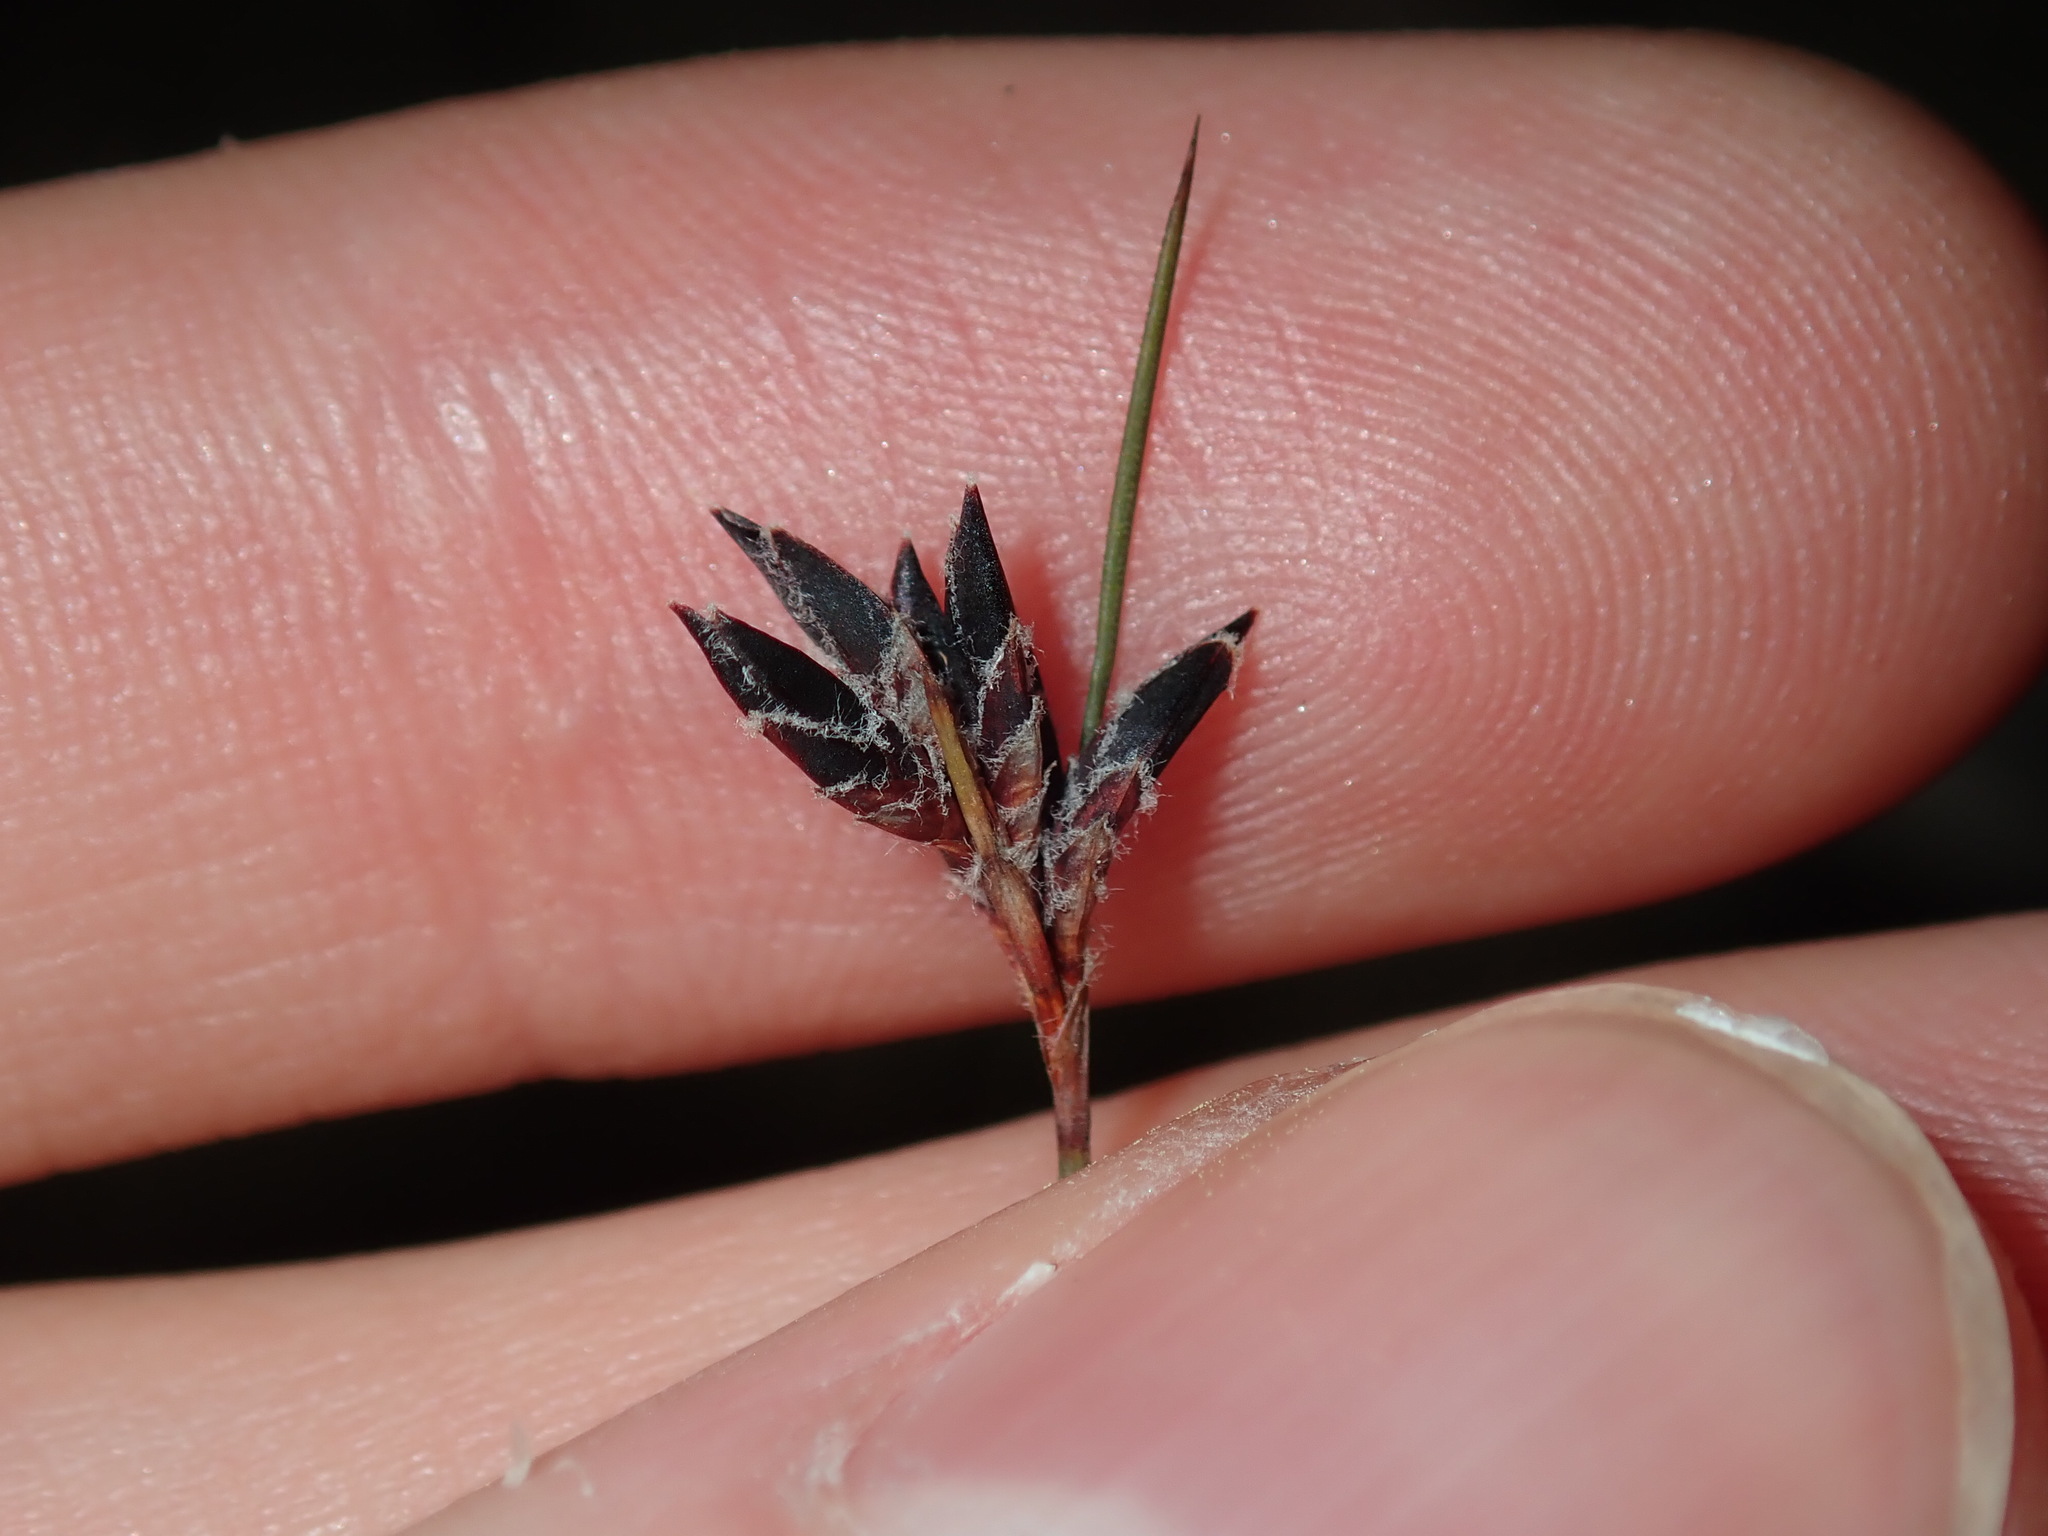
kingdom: Plantae
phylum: Tracheophyta
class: Liliopsida
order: Poales
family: Cyperaceae
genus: Schoenus
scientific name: Schoenus ericetorum
